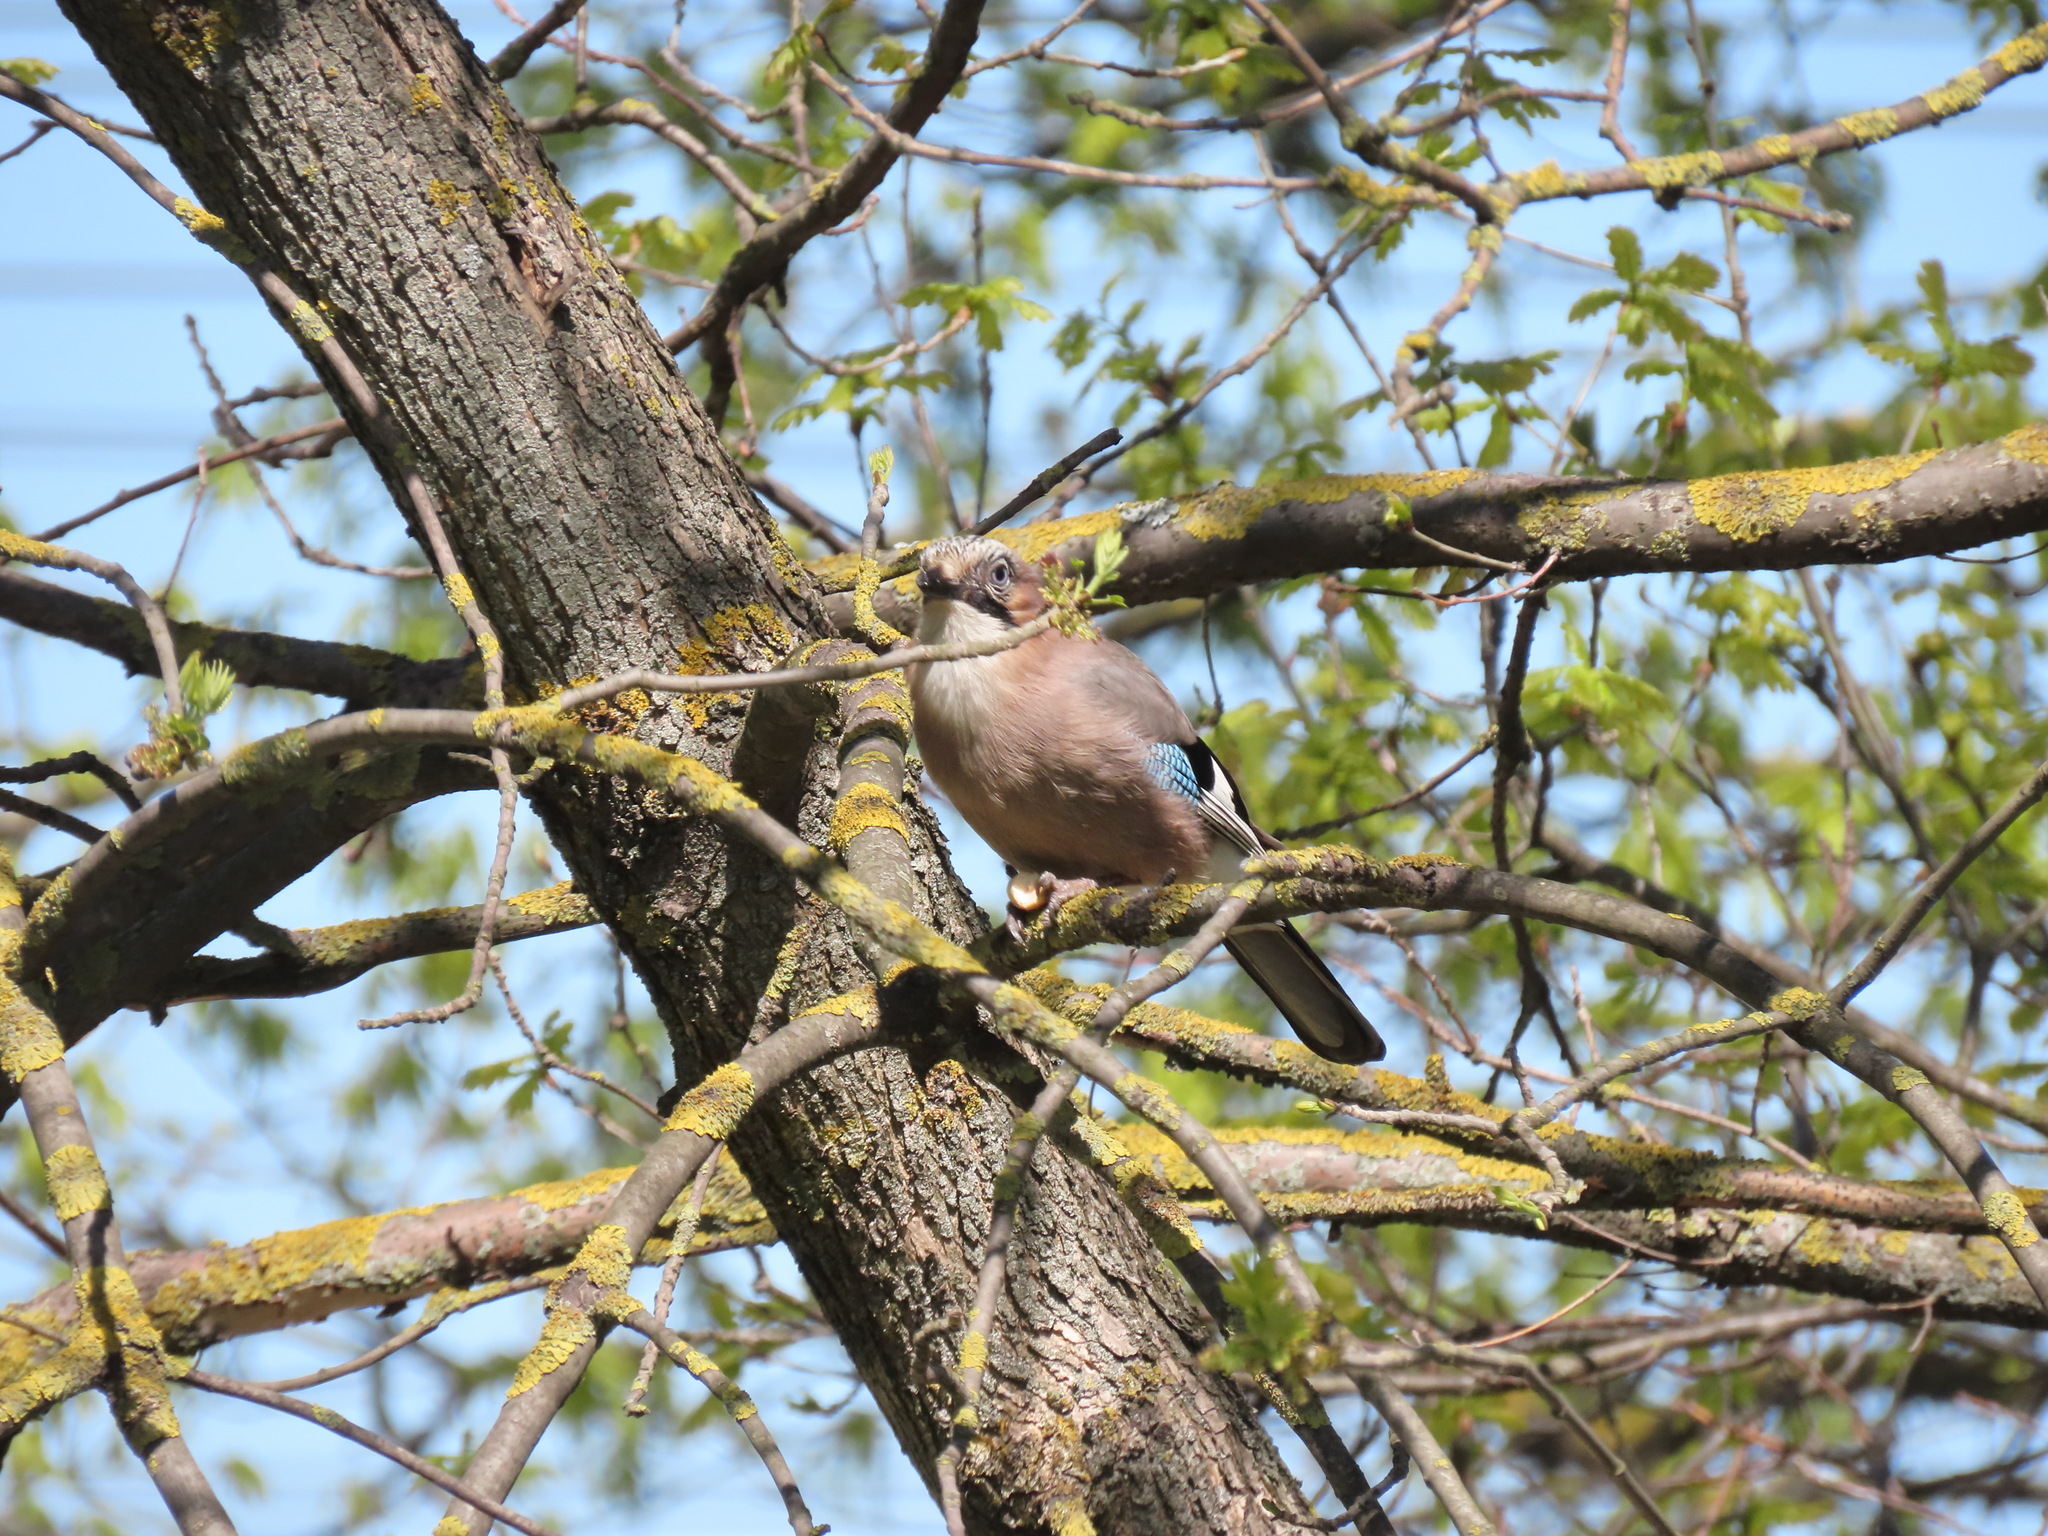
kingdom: Animalia
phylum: Chordata
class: Aves
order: Passeriformes
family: Corvidae
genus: Garrulus
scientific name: Garrulus glandarius
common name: Eurasian jay
